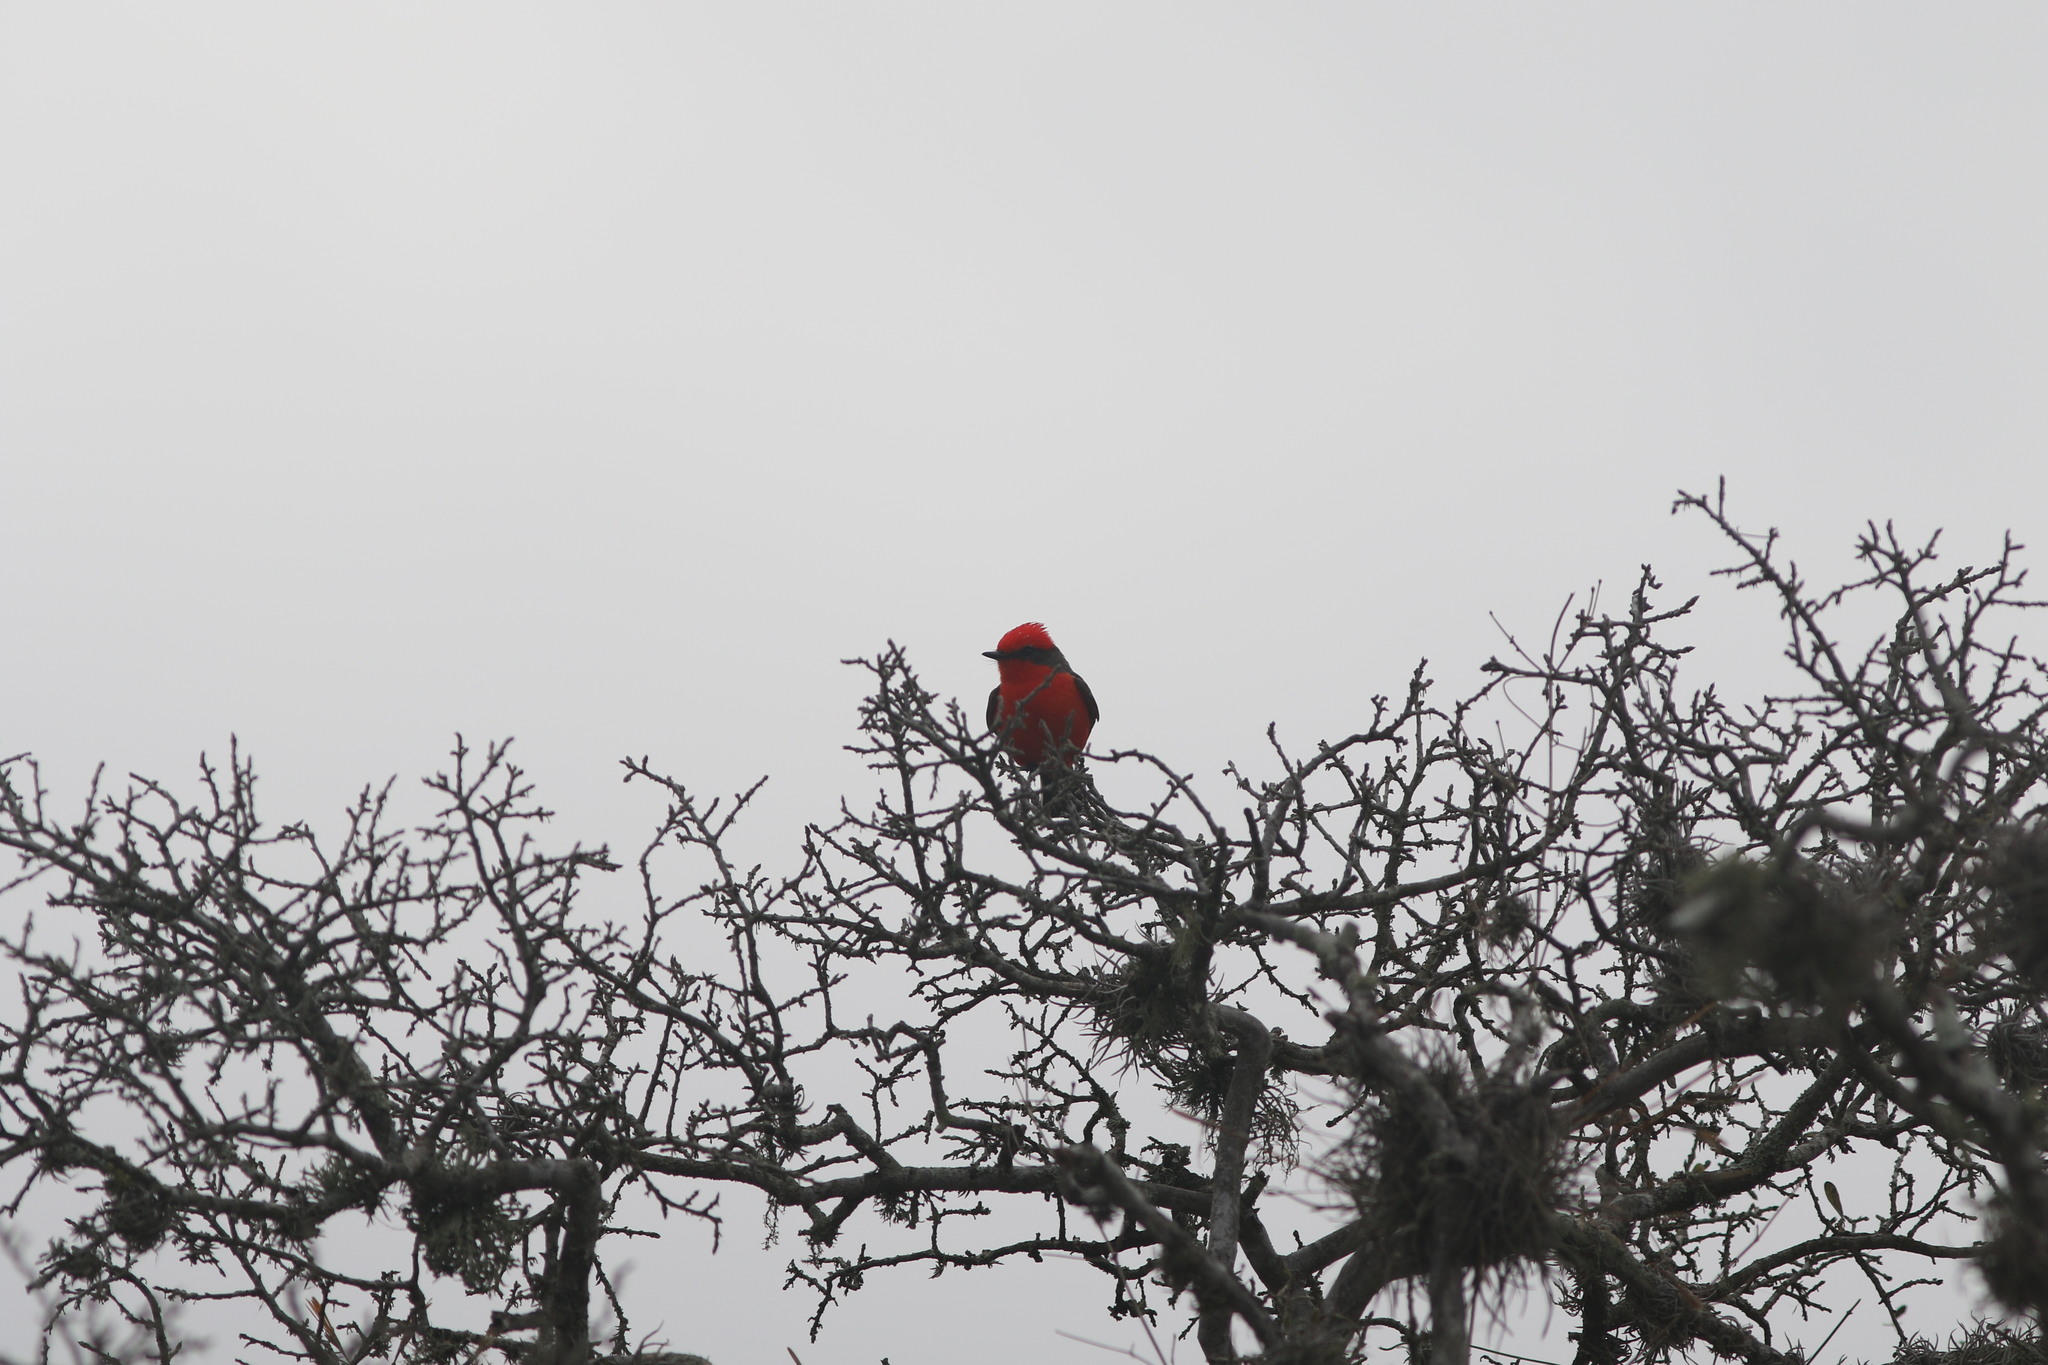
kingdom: Animalia
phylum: Chordata
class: Aves
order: Passeriformes
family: Tyrannidae
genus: Pyrocephalus
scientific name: Pyrocephalus rubinus
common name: Vermilion flycatcher
